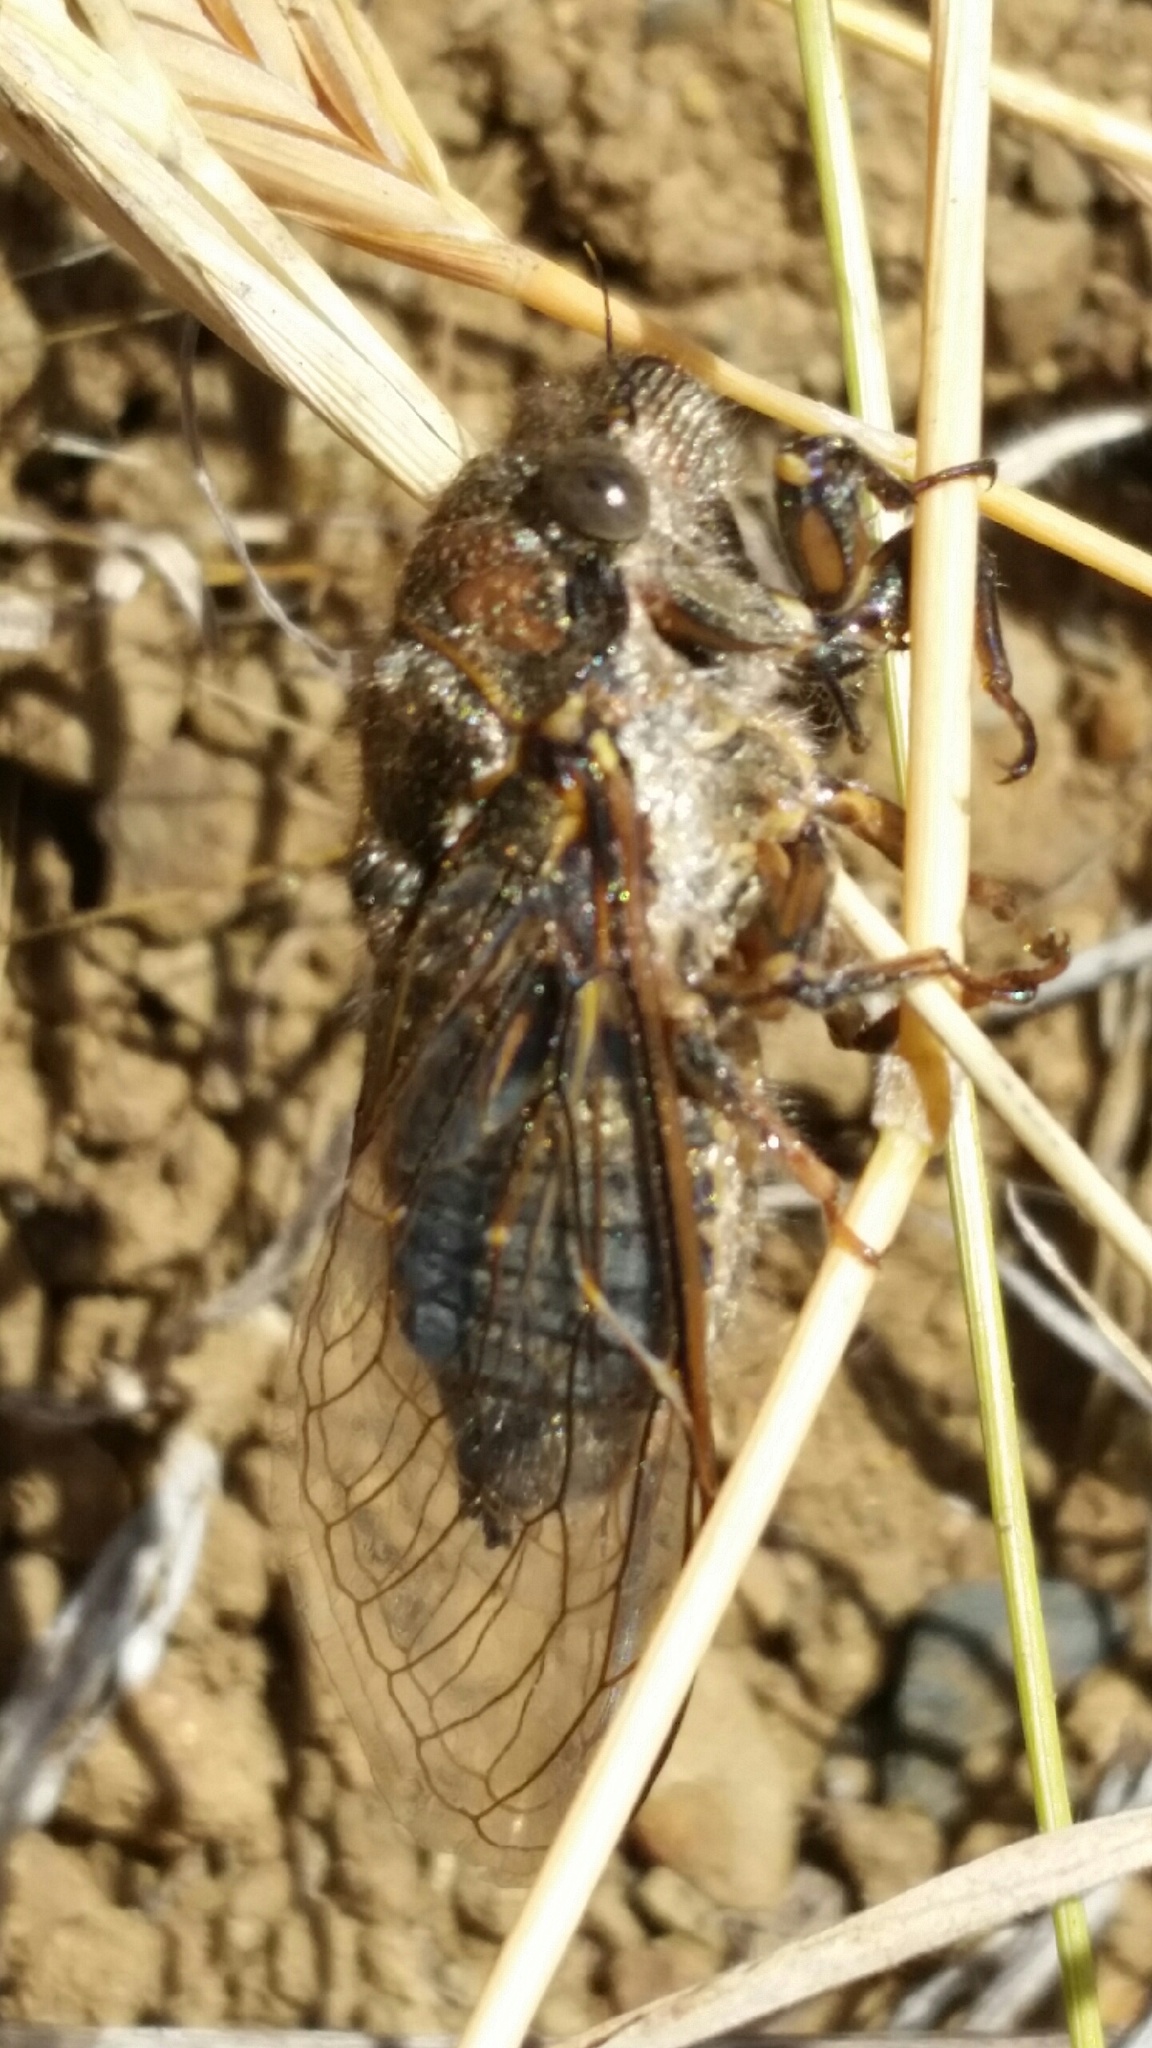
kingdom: Animalia
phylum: Arthropoda
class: Insecta
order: Hemiptera
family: Cicadidae
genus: Tibicinoides
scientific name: Tibicinoides
